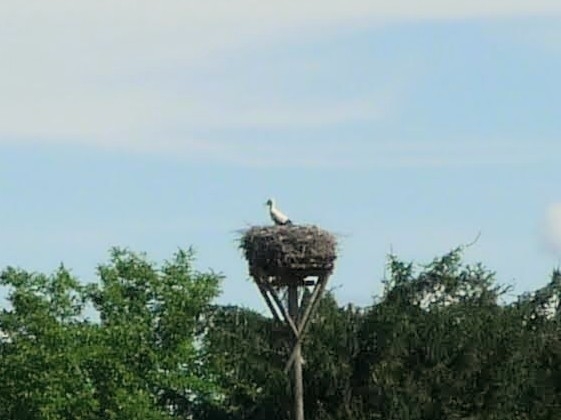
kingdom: Animalia
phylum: Chordata
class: Aves
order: Ciconiiformes
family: Ciconiidae
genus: Ciconia
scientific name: Ciconia ciconia
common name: White stork
